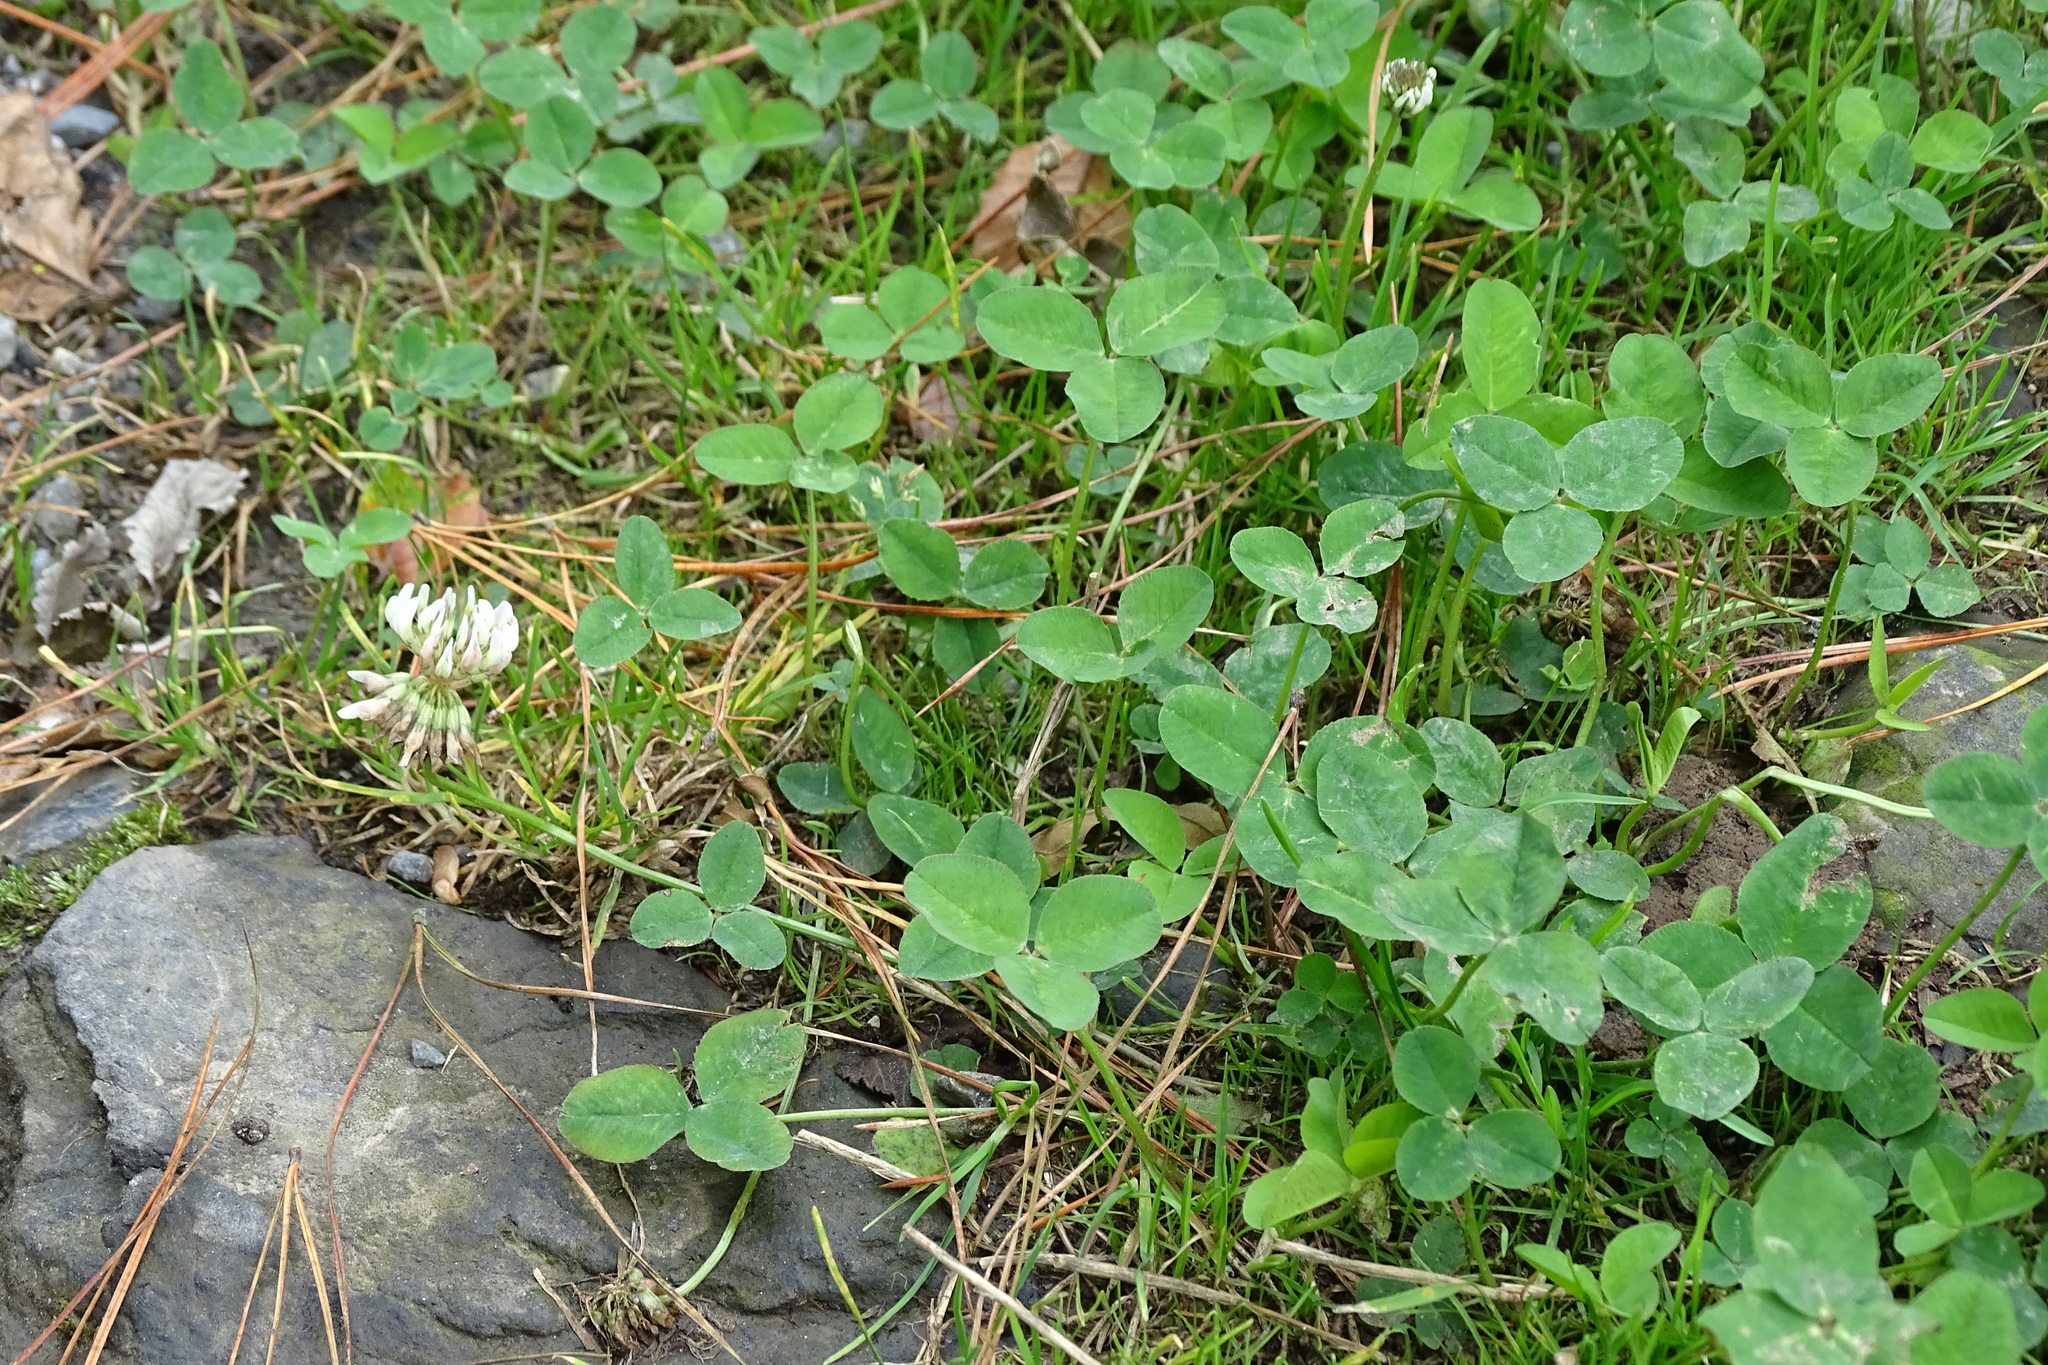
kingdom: Plantae
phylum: Tracheophyta
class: Magnoliopsida
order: Fabales
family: Fabaceae
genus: Trifolium
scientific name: Trifolium repens
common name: White clover
